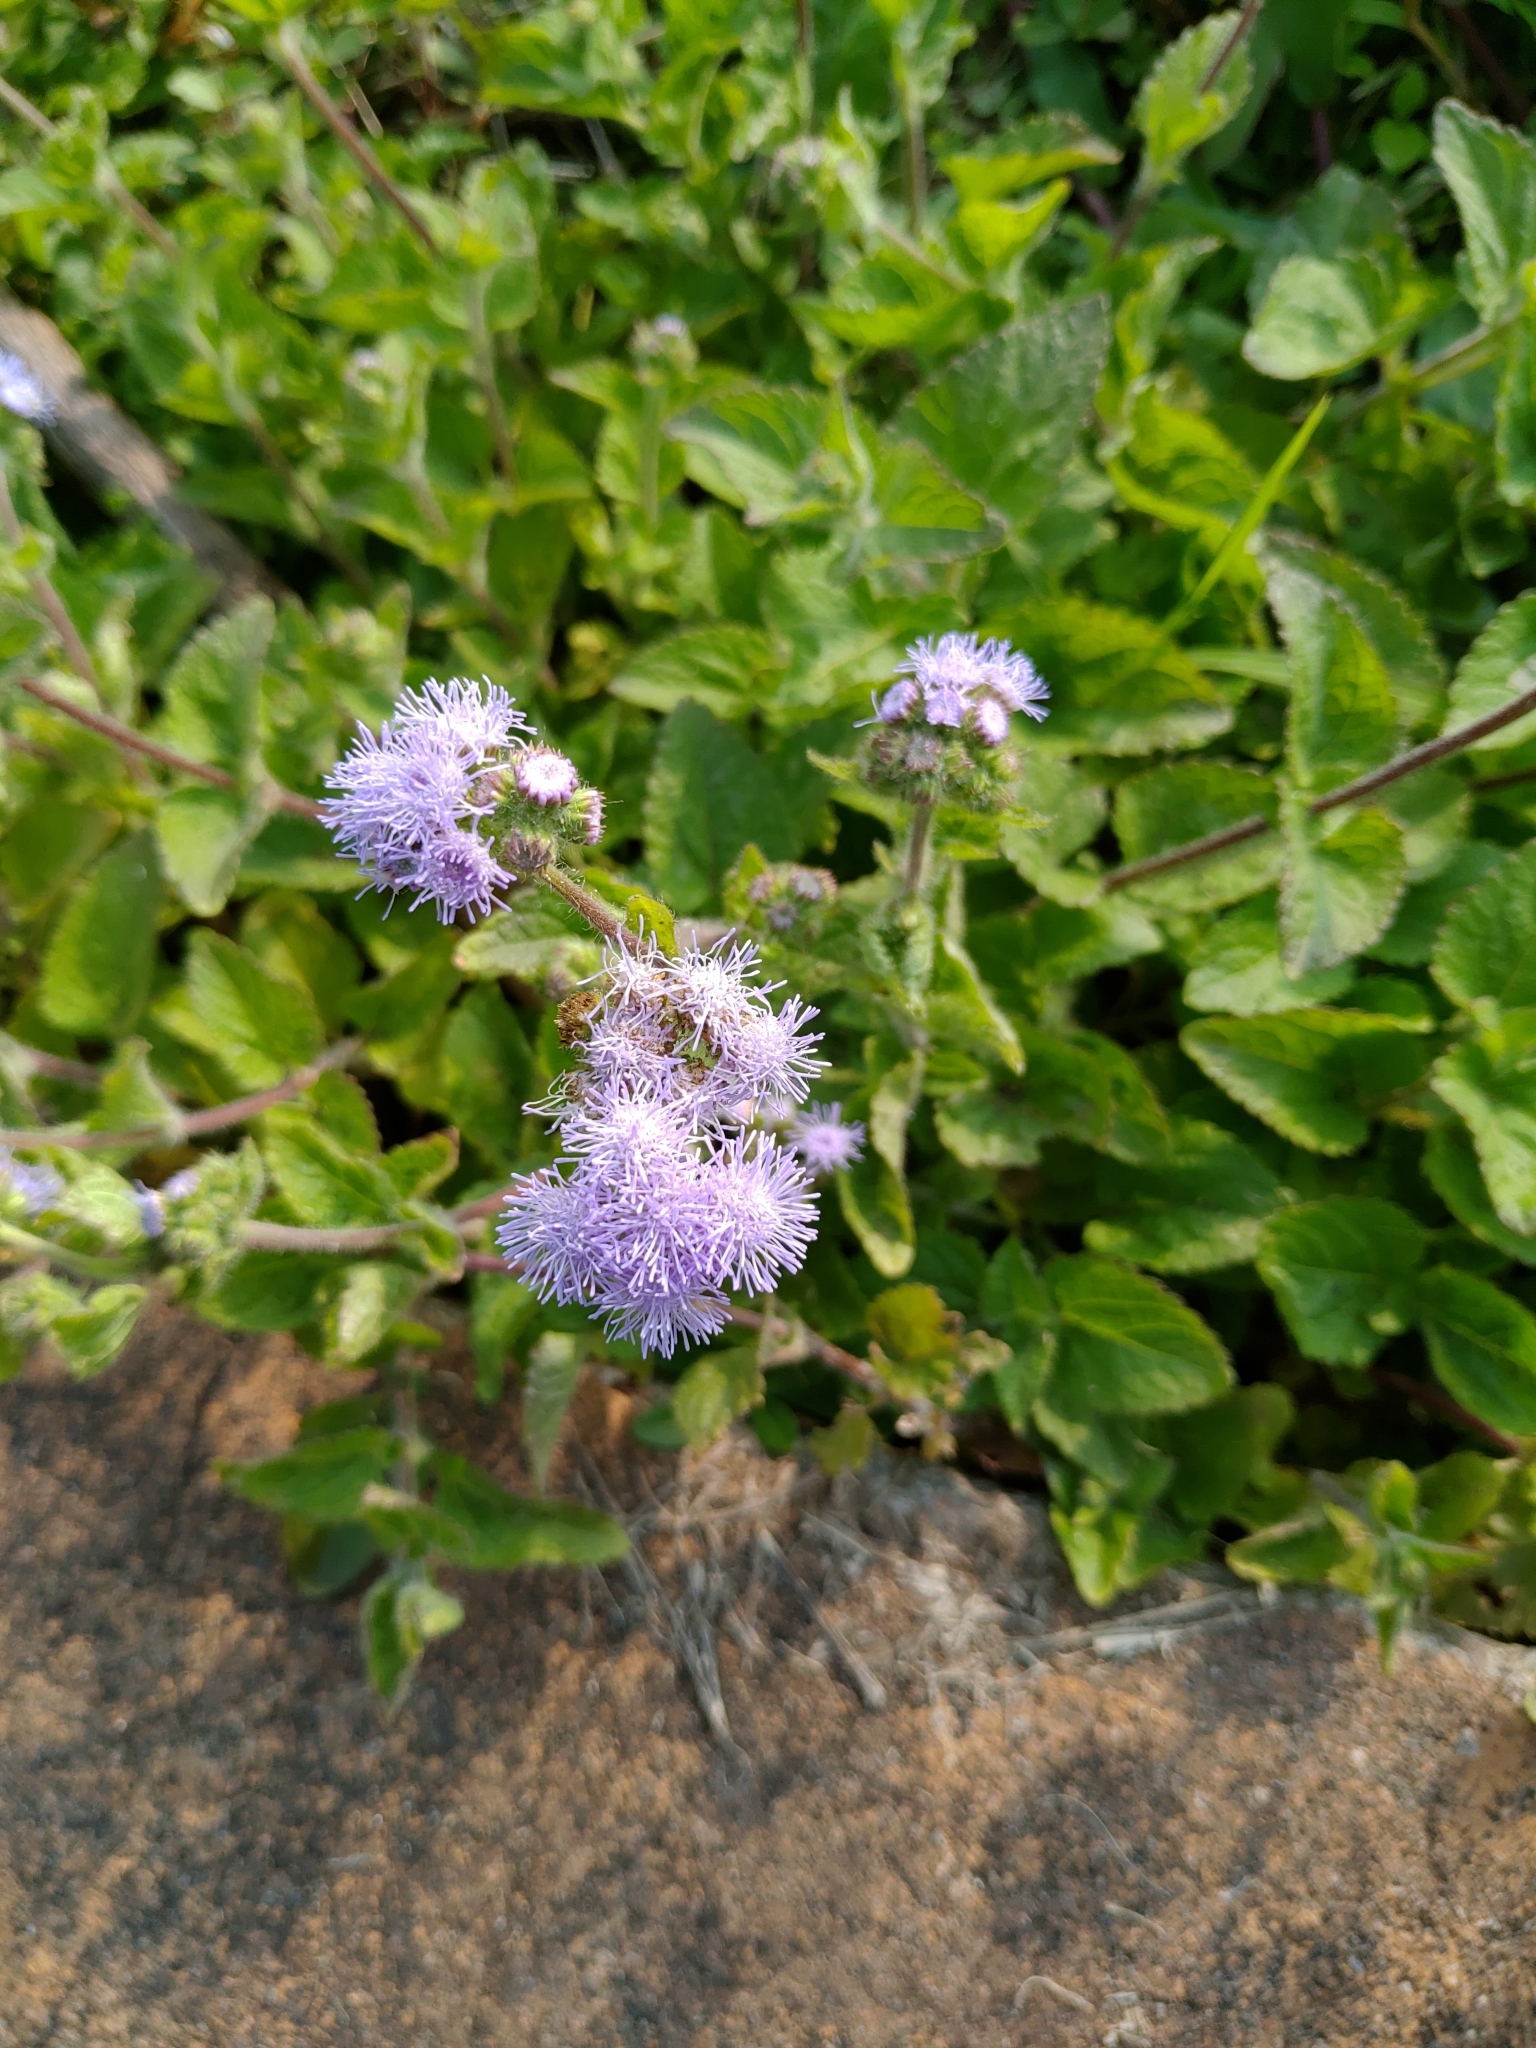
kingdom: Plantae
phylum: Tracheophyta
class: Magnoliopsida
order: Asterales
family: Asteraceae
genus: Ageratum
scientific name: Ageratum houstonianum
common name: Bluemink
